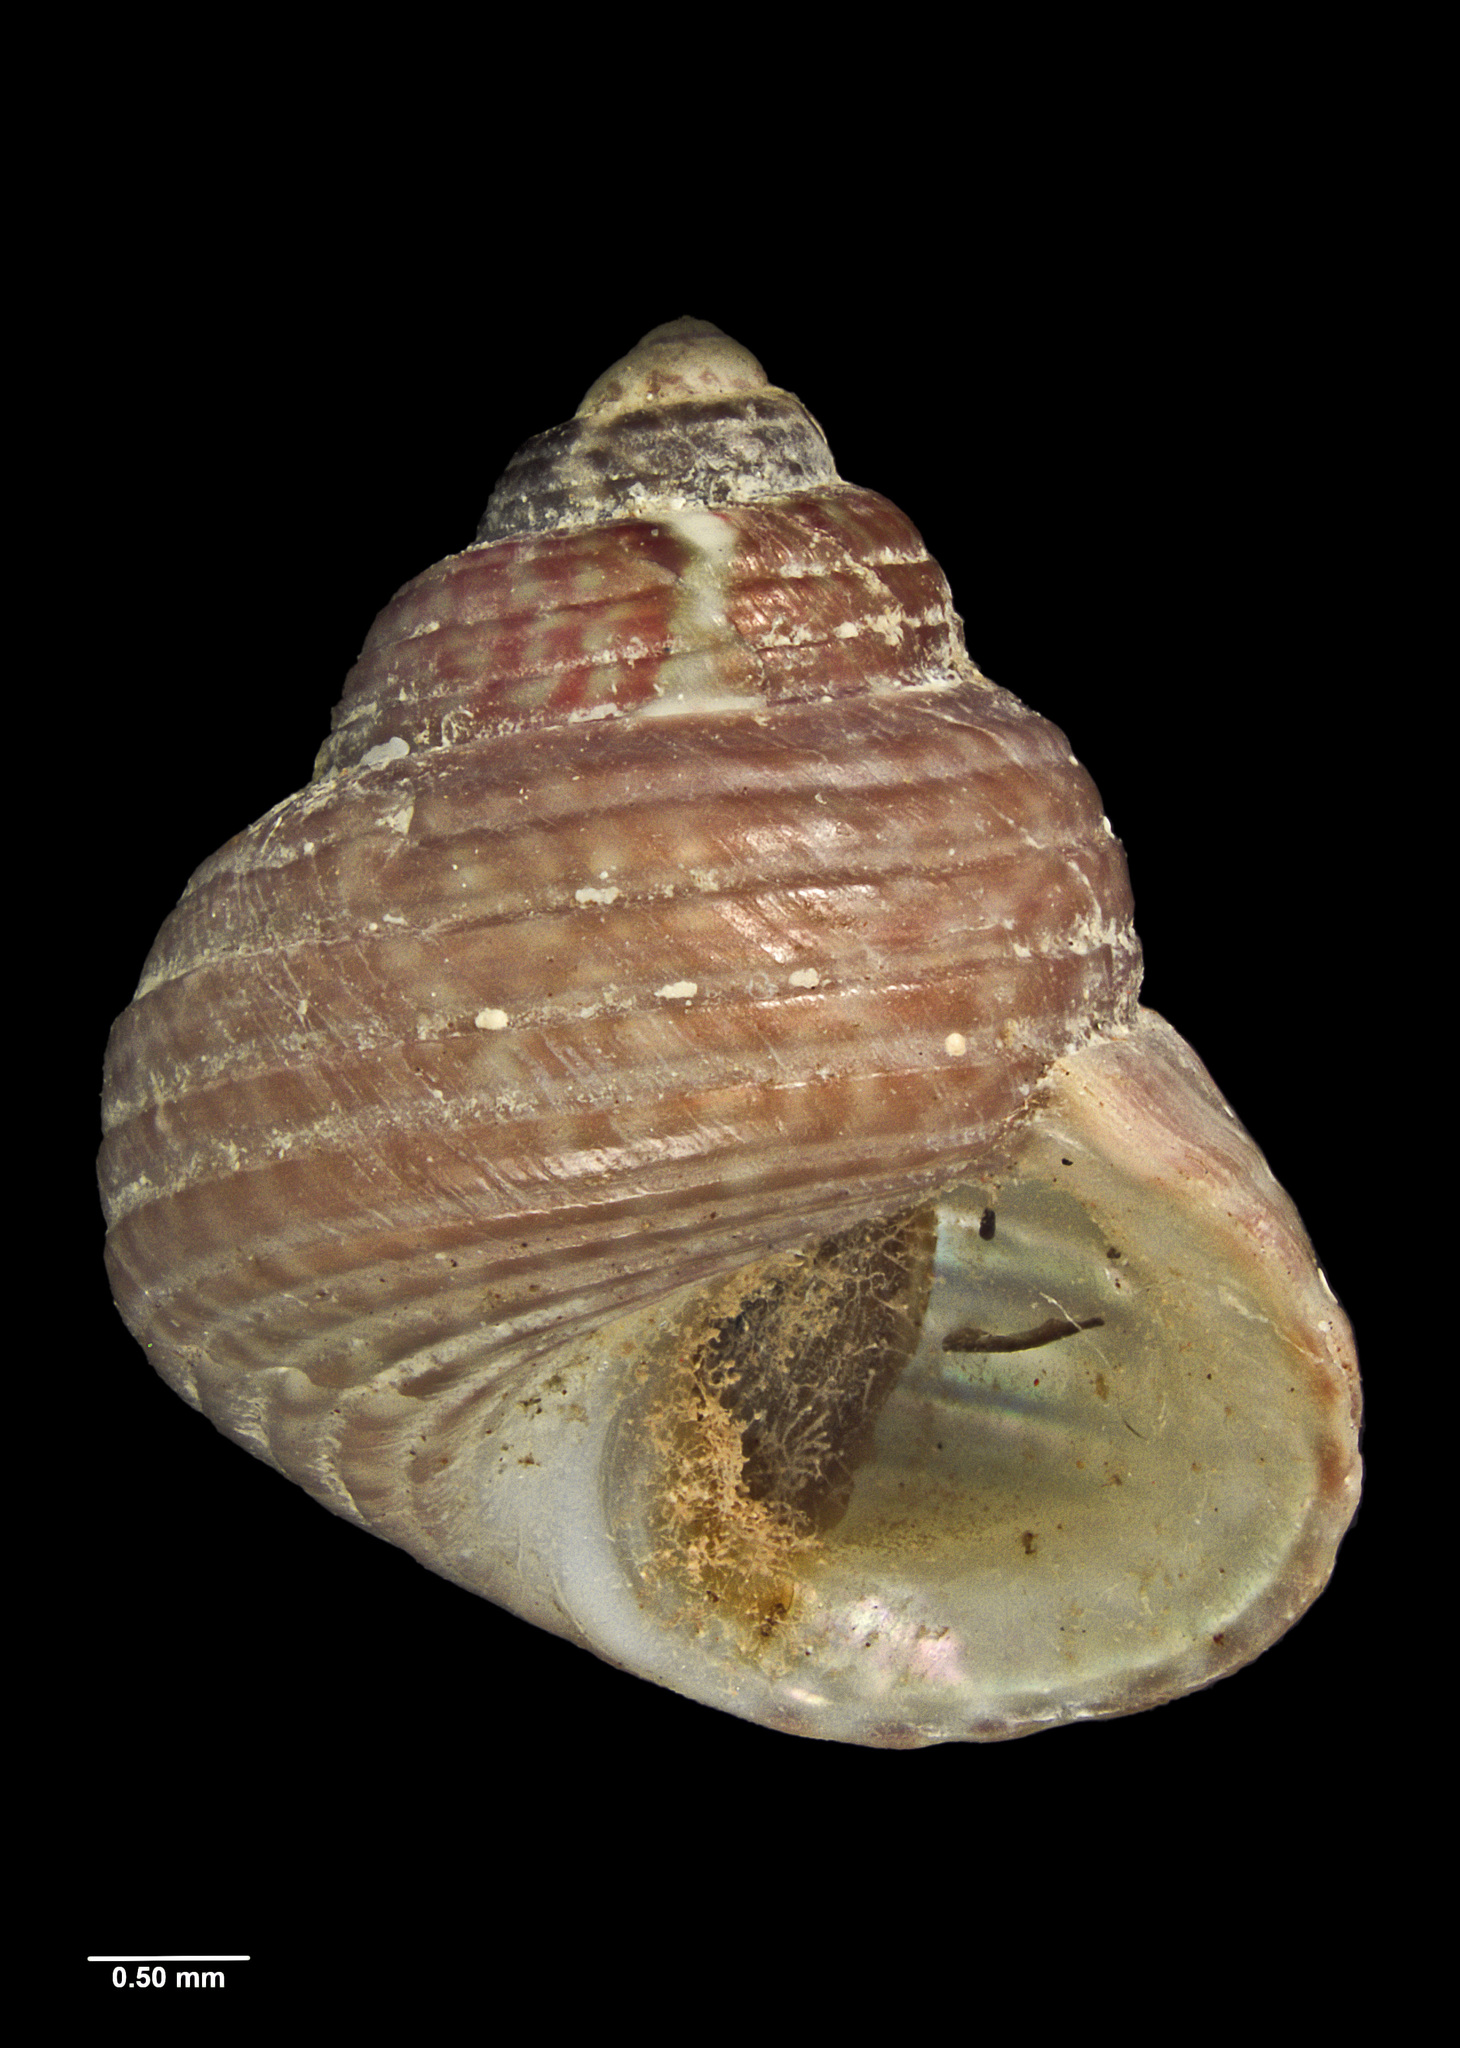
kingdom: Animalia
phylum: Mollusca
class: Gastropoda
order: Trochida
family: Trochidae
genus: Micrelenchus
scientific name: Micrelenchus sanguineus
